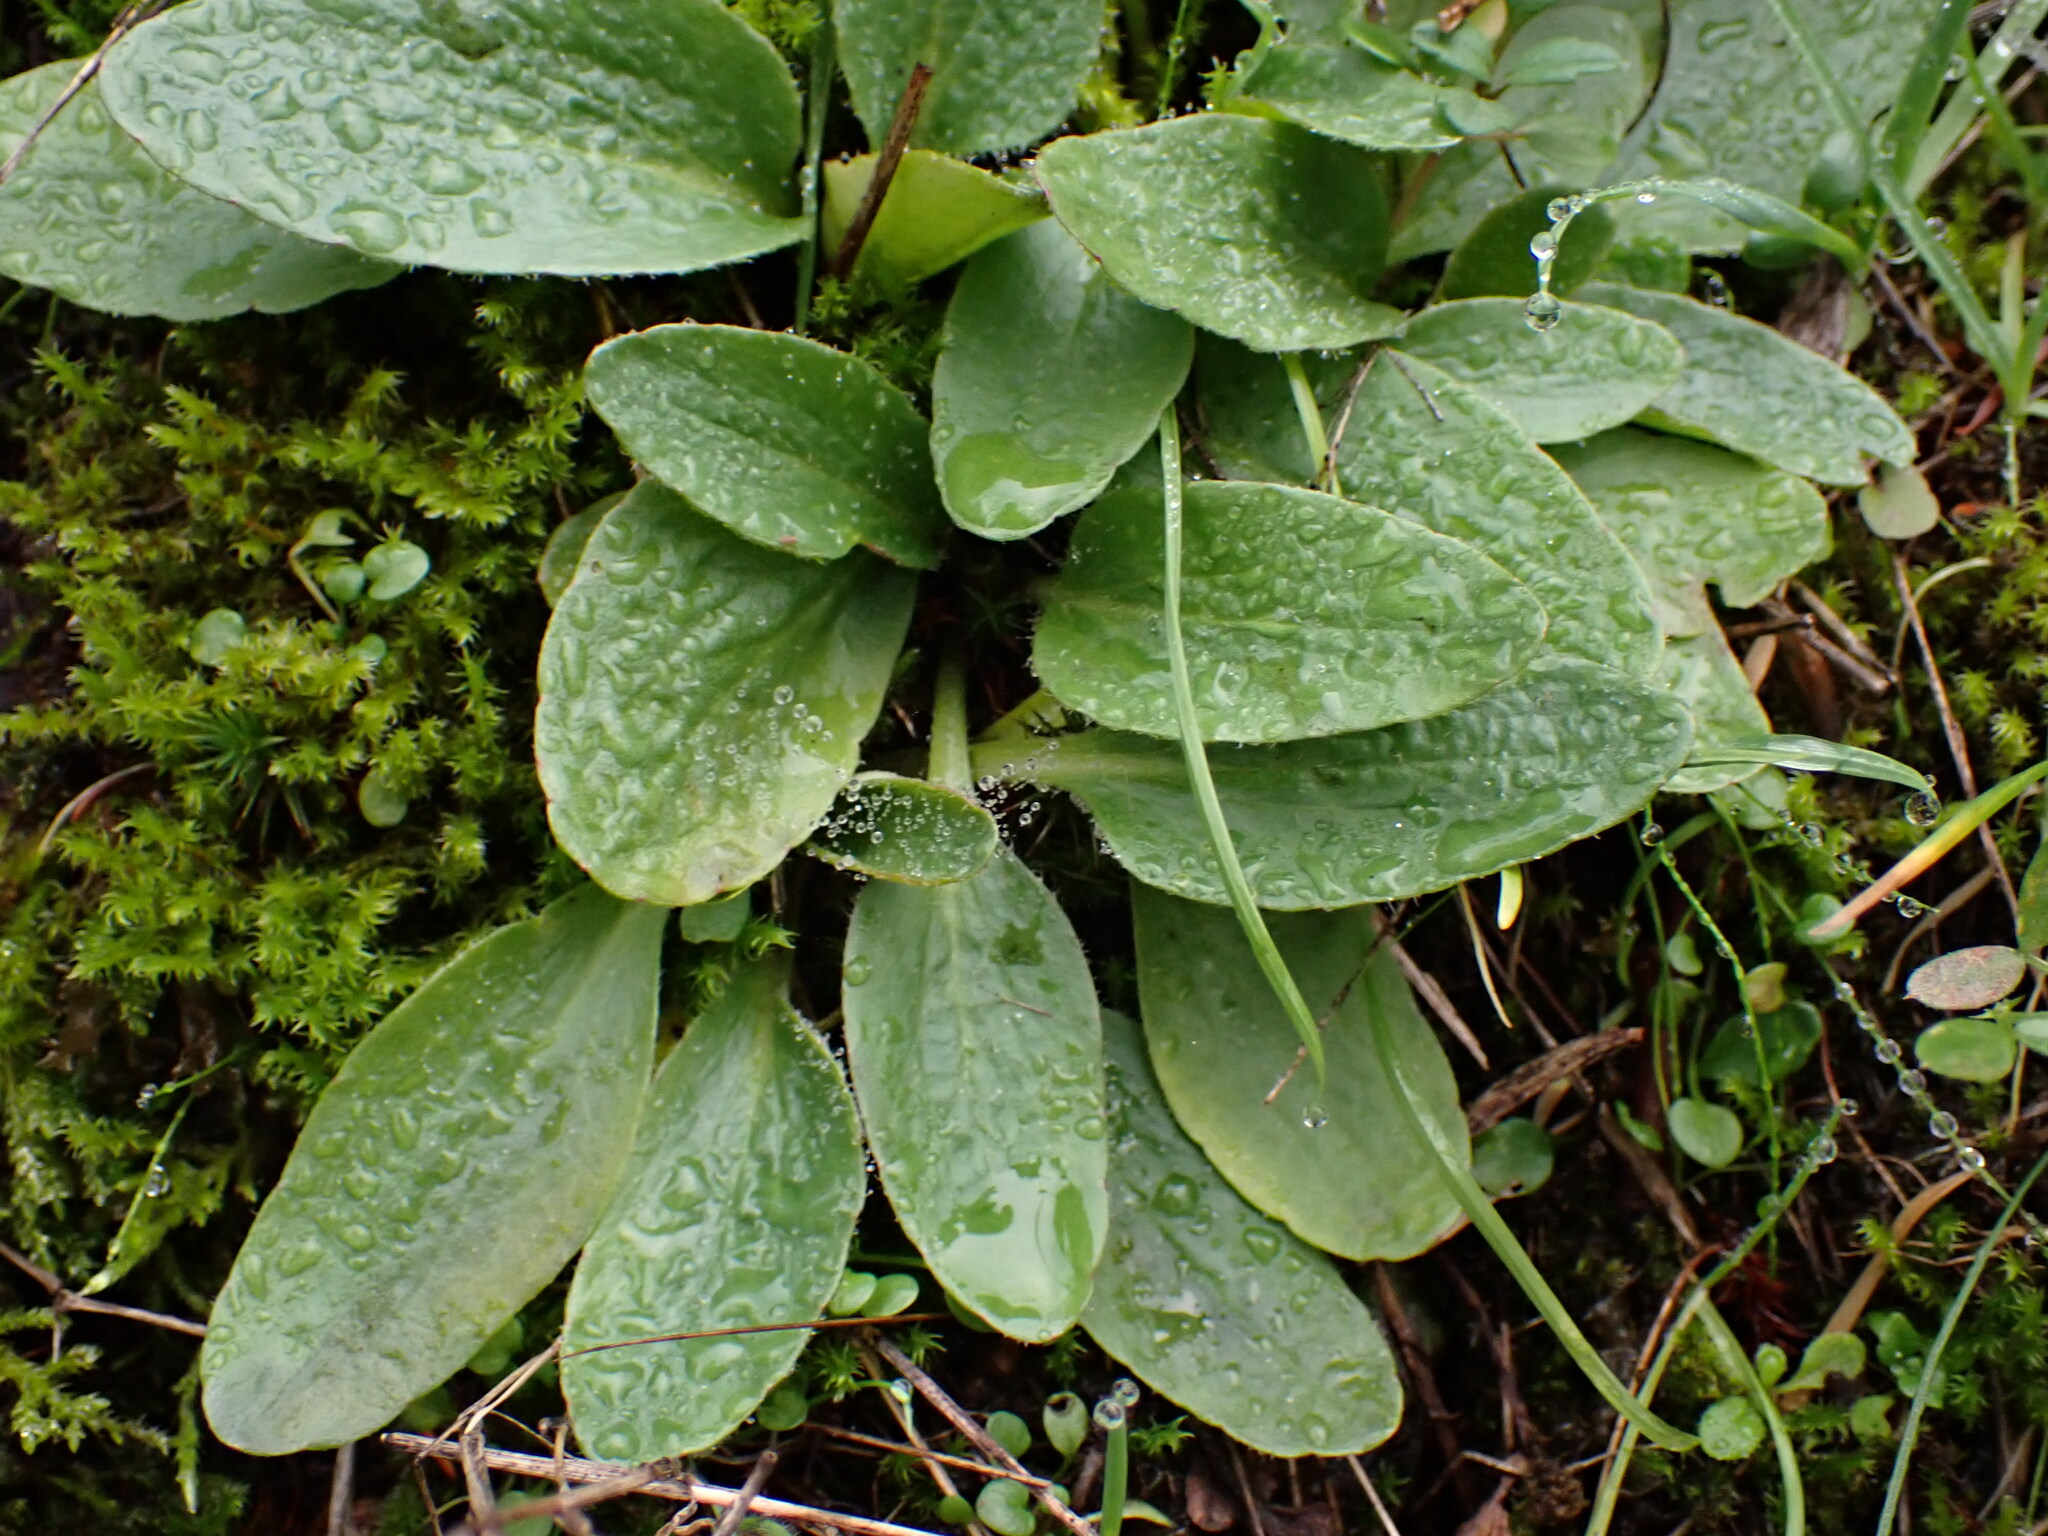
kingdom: Plantae
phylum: Tracheophyta
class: Magnoliopsida
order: Saxifragales
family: Saxifragaceae
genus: Micranthes
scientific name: Micranthes integrifolia
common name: Wholeleaf saxifrage
